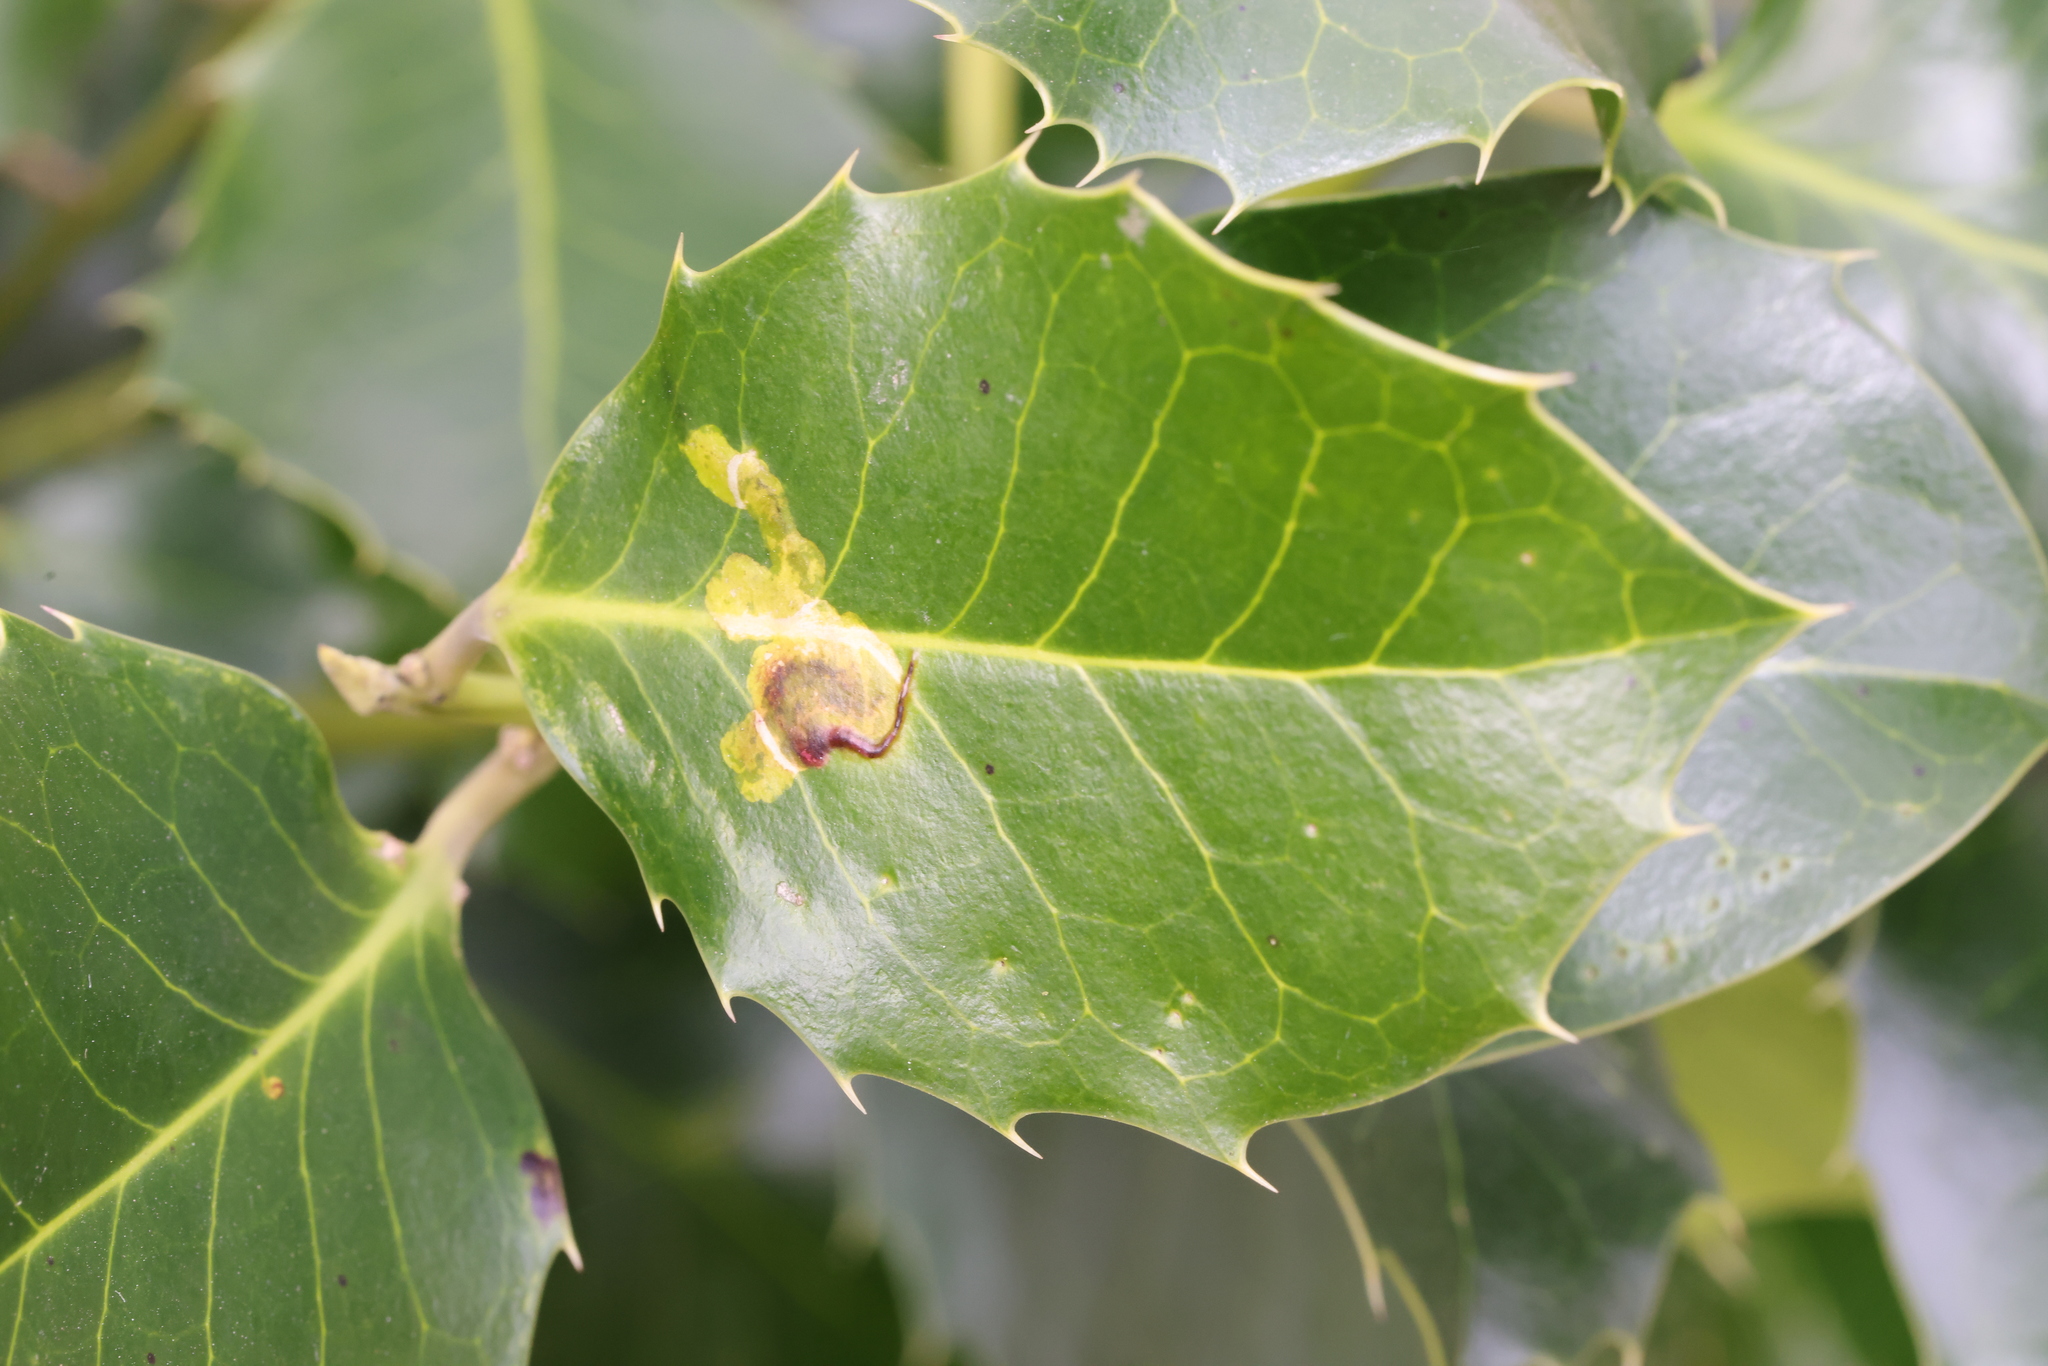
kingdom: Animalia
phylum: Arthropoda
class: Insecta
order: Diptera
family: Agromyzidae
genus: Phytomyza
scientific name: Phytomyza ilicis
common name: Holly leafminer
